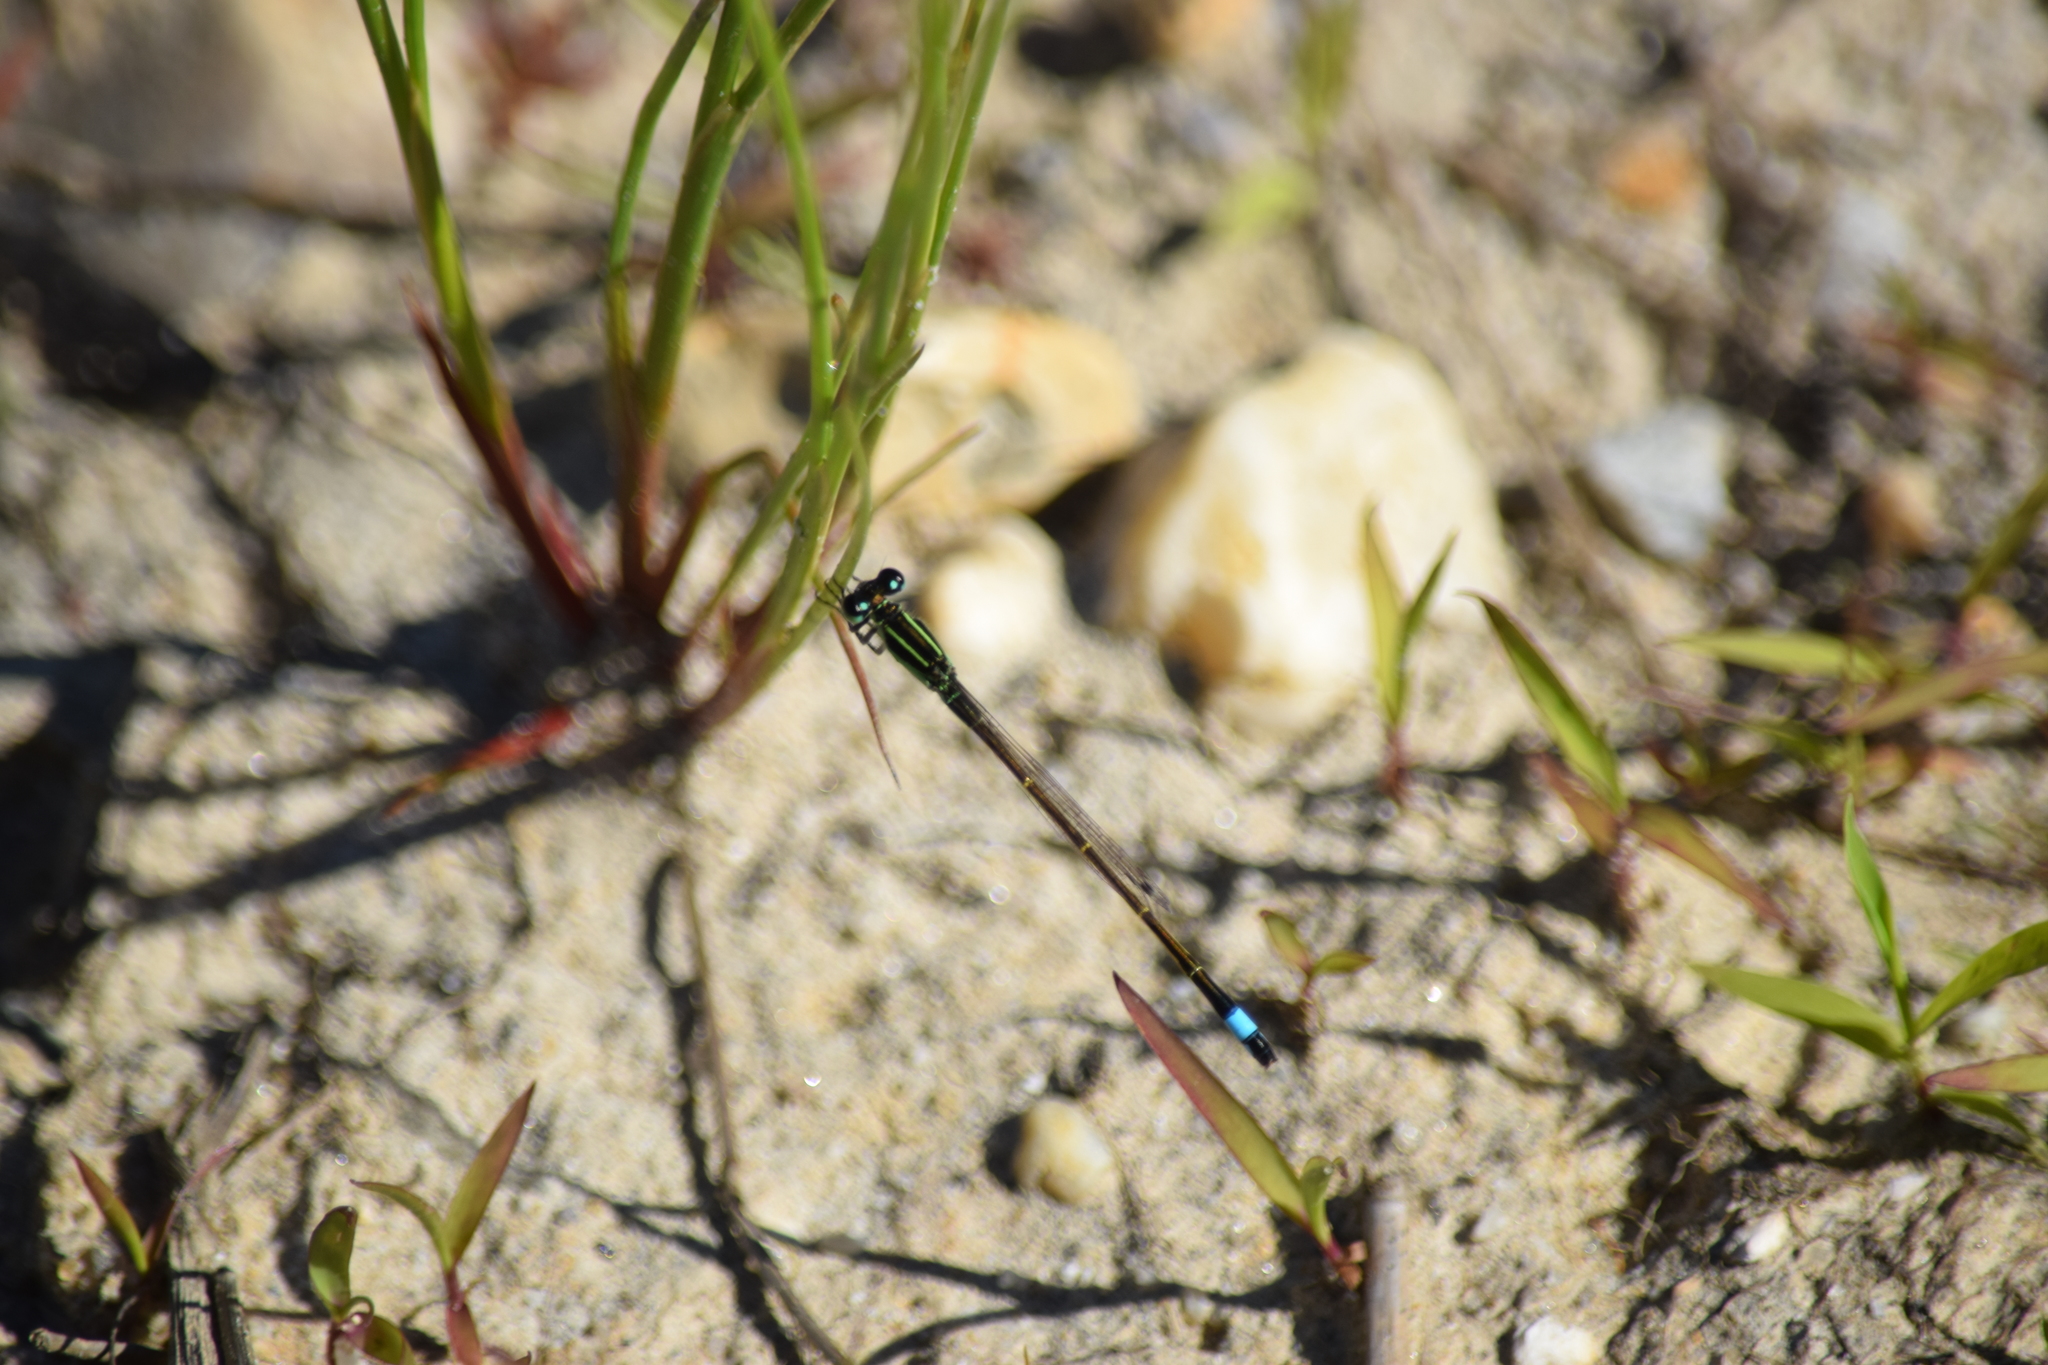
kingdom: Animalia
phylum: Arthropoda
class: Insecta
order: Odonata
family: Coenagrionidae
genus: Ischnura
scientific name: Ischnura ramburii
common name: Rambur's forktail
